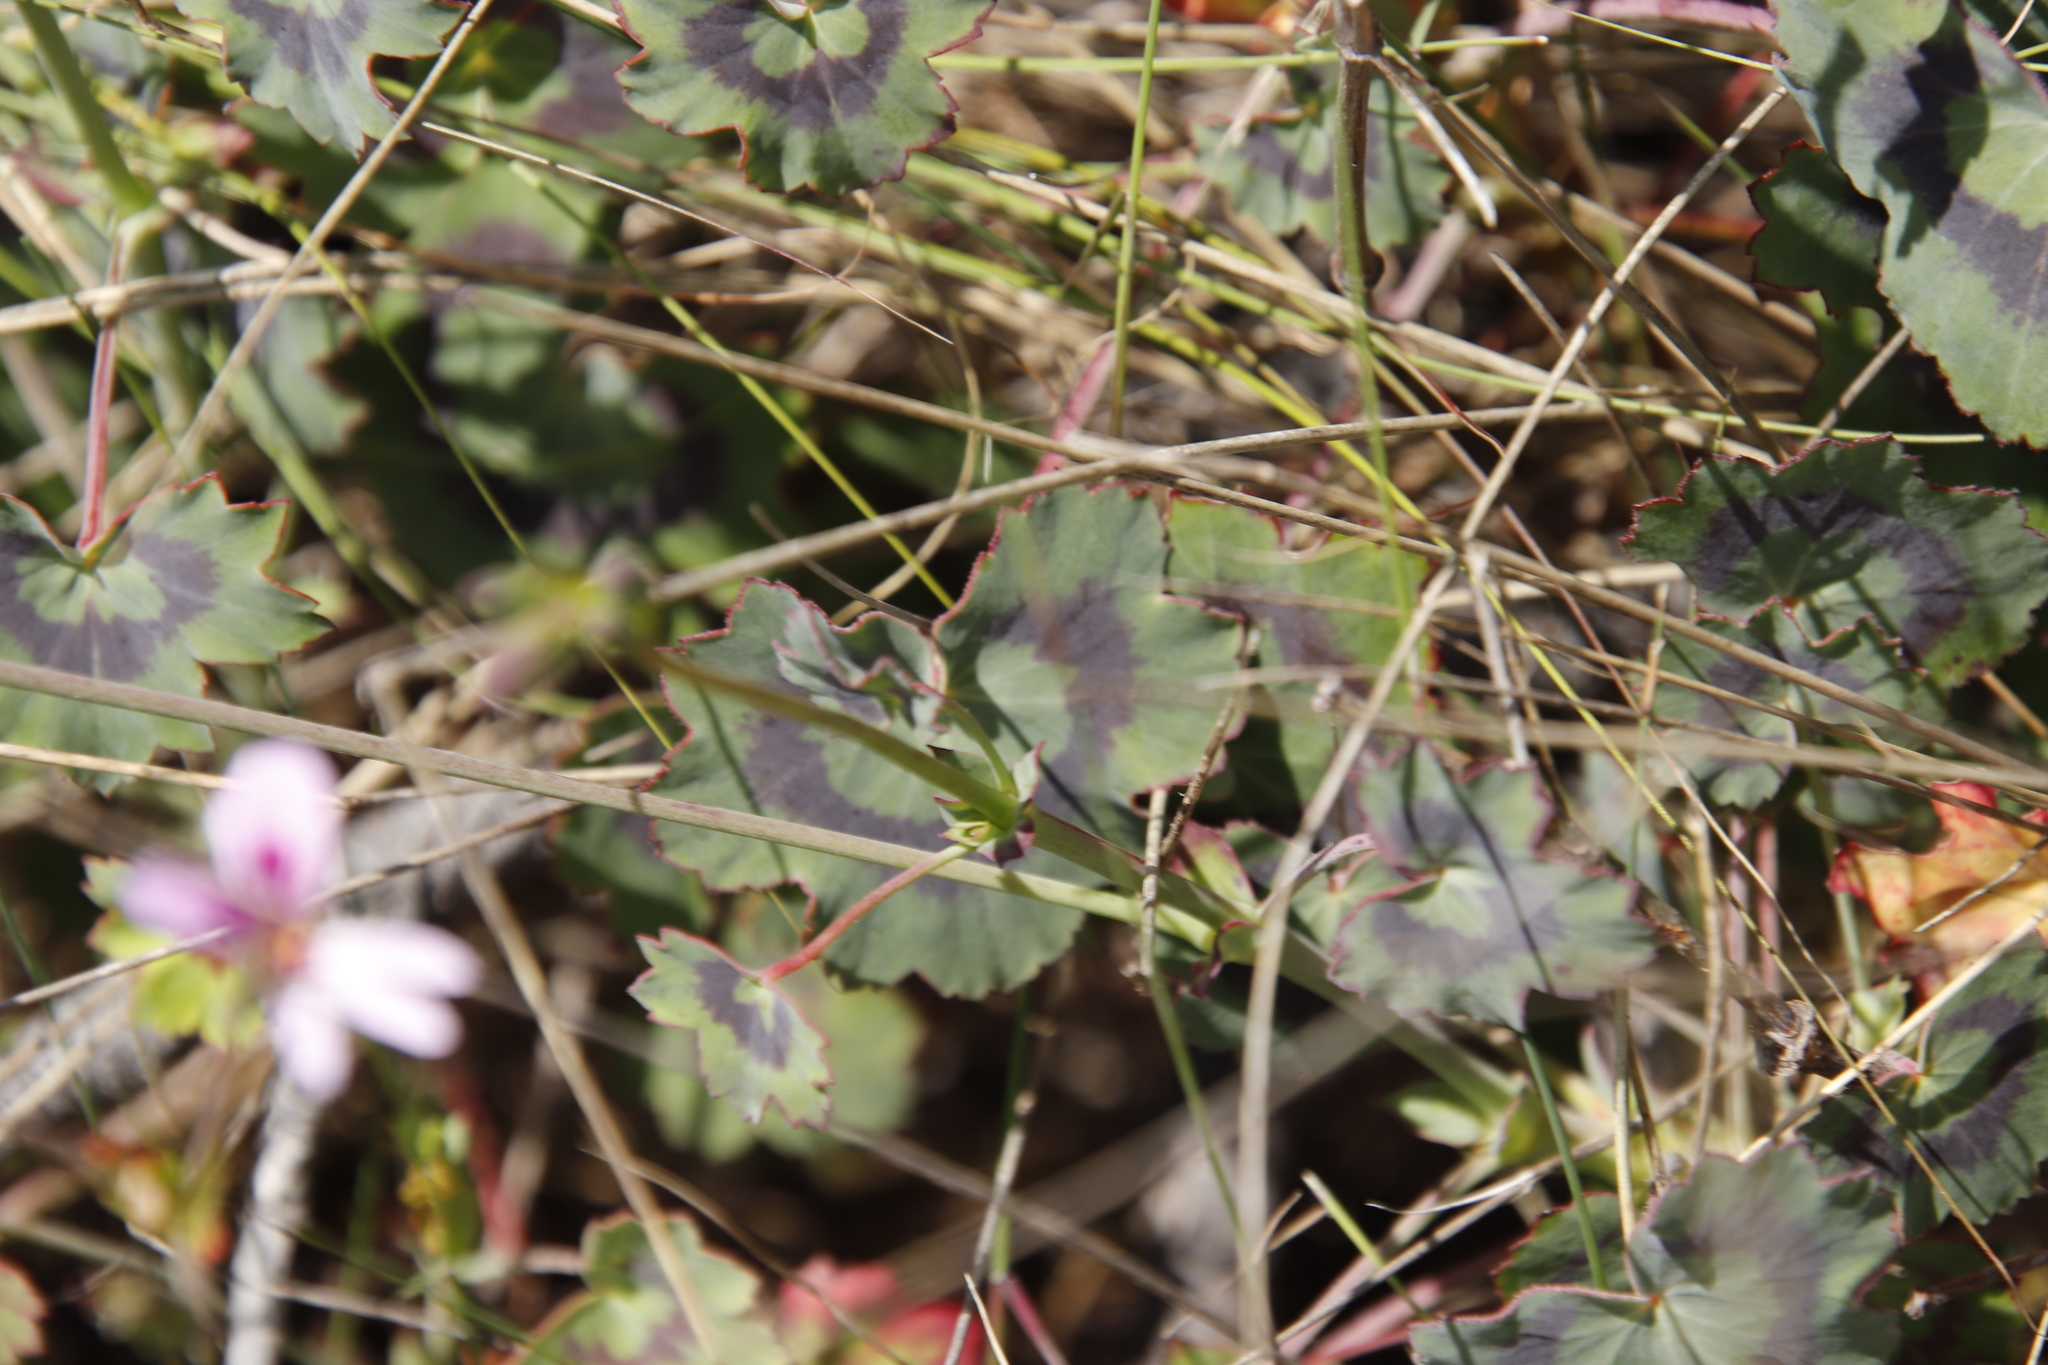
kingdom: Plantae
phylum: Tracheophyta
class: Magnoliopsida
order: Geraniales
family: Geraniaceae
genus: Pelargonium
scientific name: Pelargonium tabulare
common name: Table mountain pelargonium
